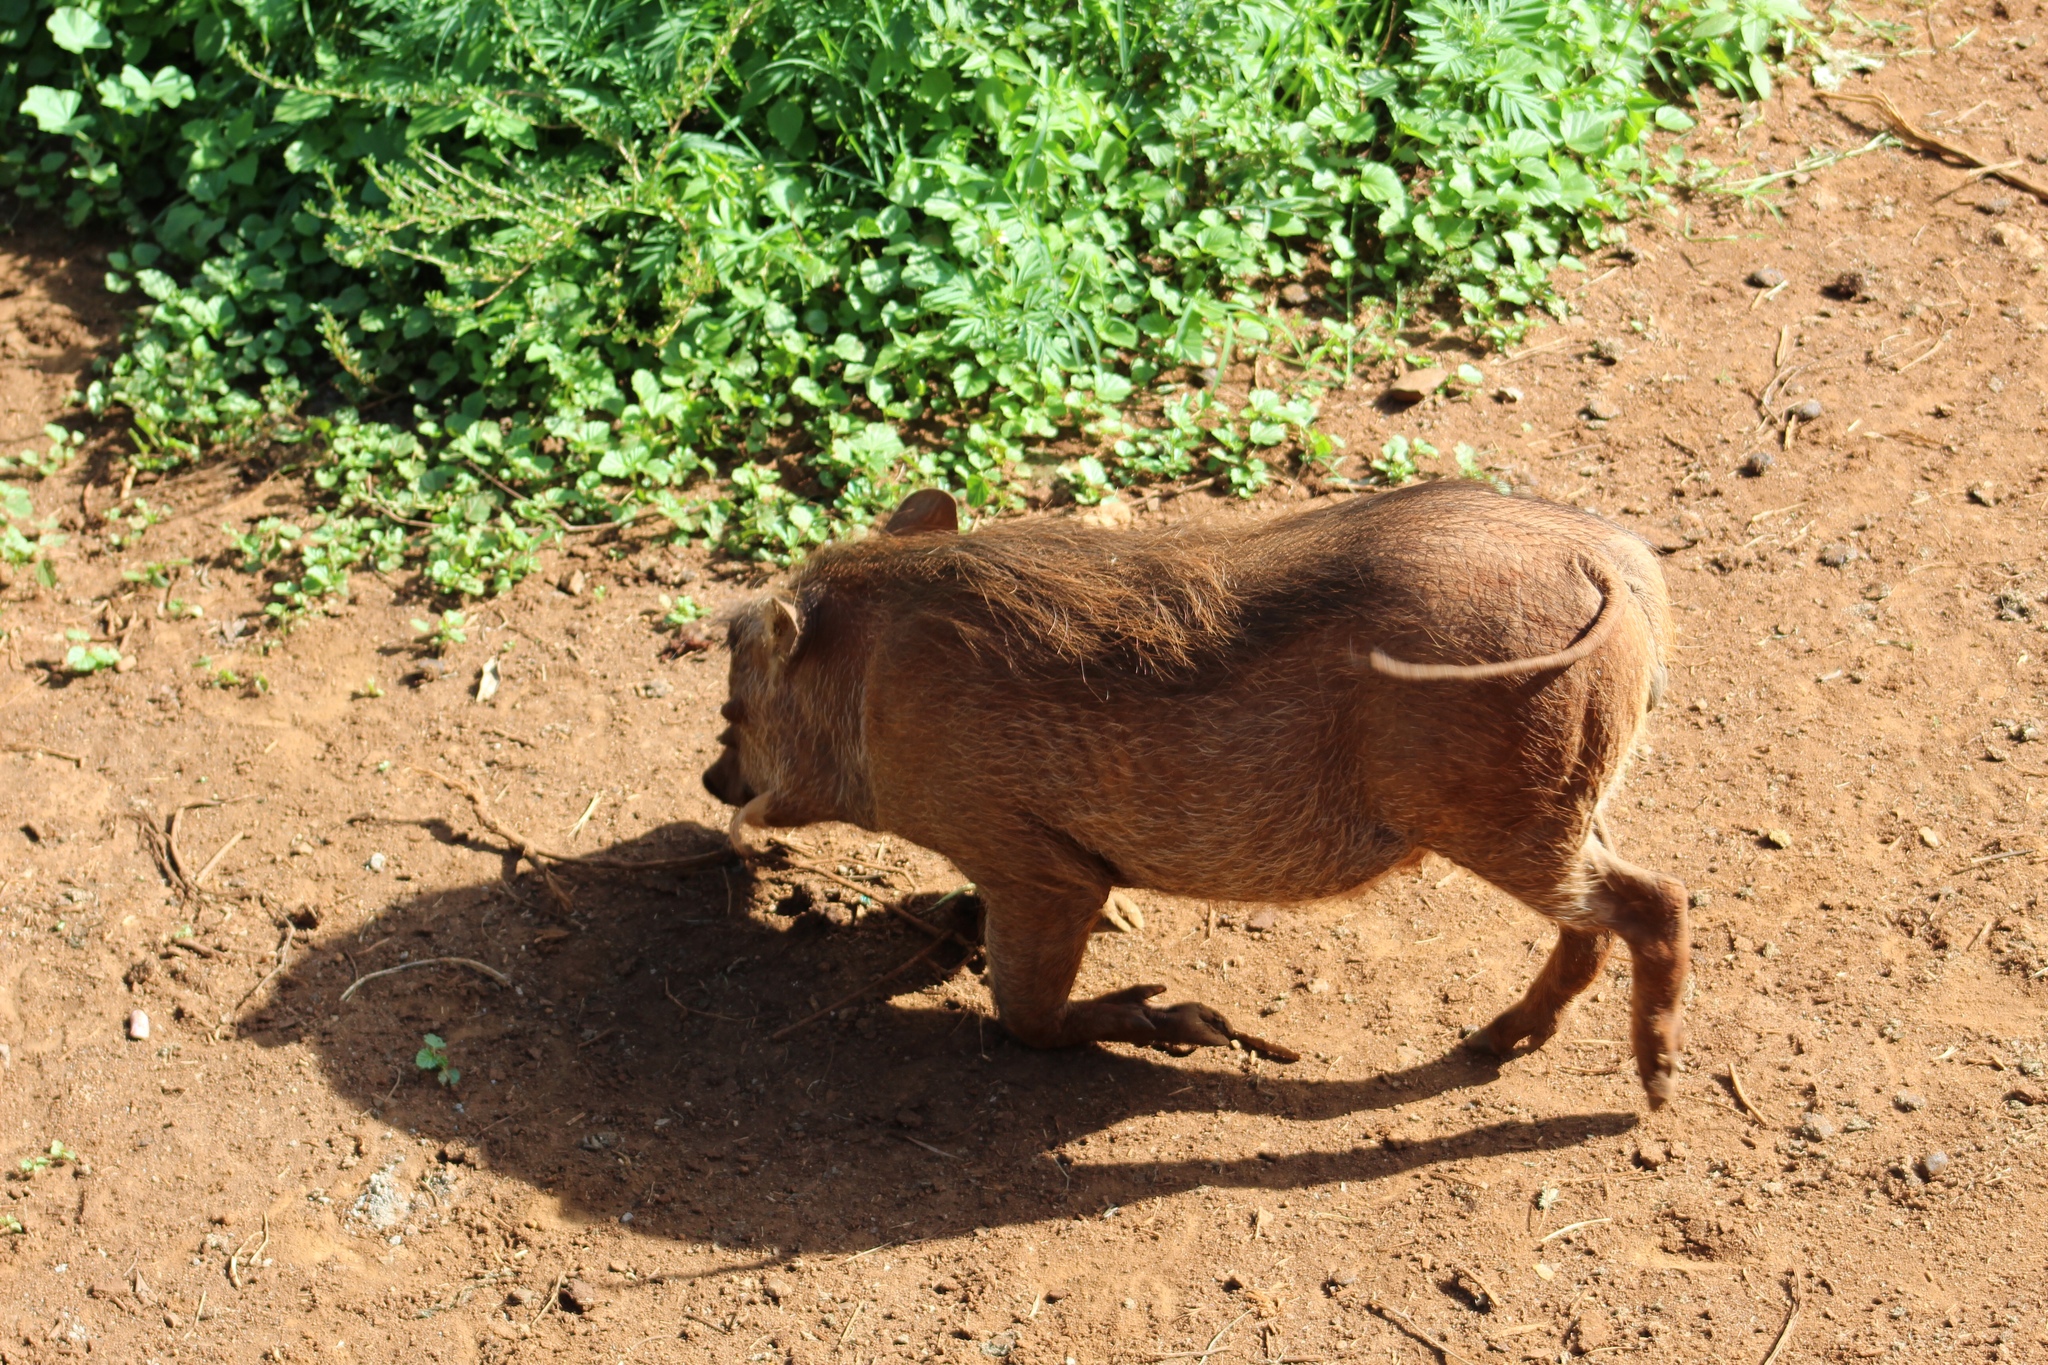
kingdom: Animalia
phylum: Chordata
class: Mammalia
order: Artiodactyla
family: Suidae
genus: Phacochoerus
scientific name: Phacochoerus africanus
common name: Common warthog
